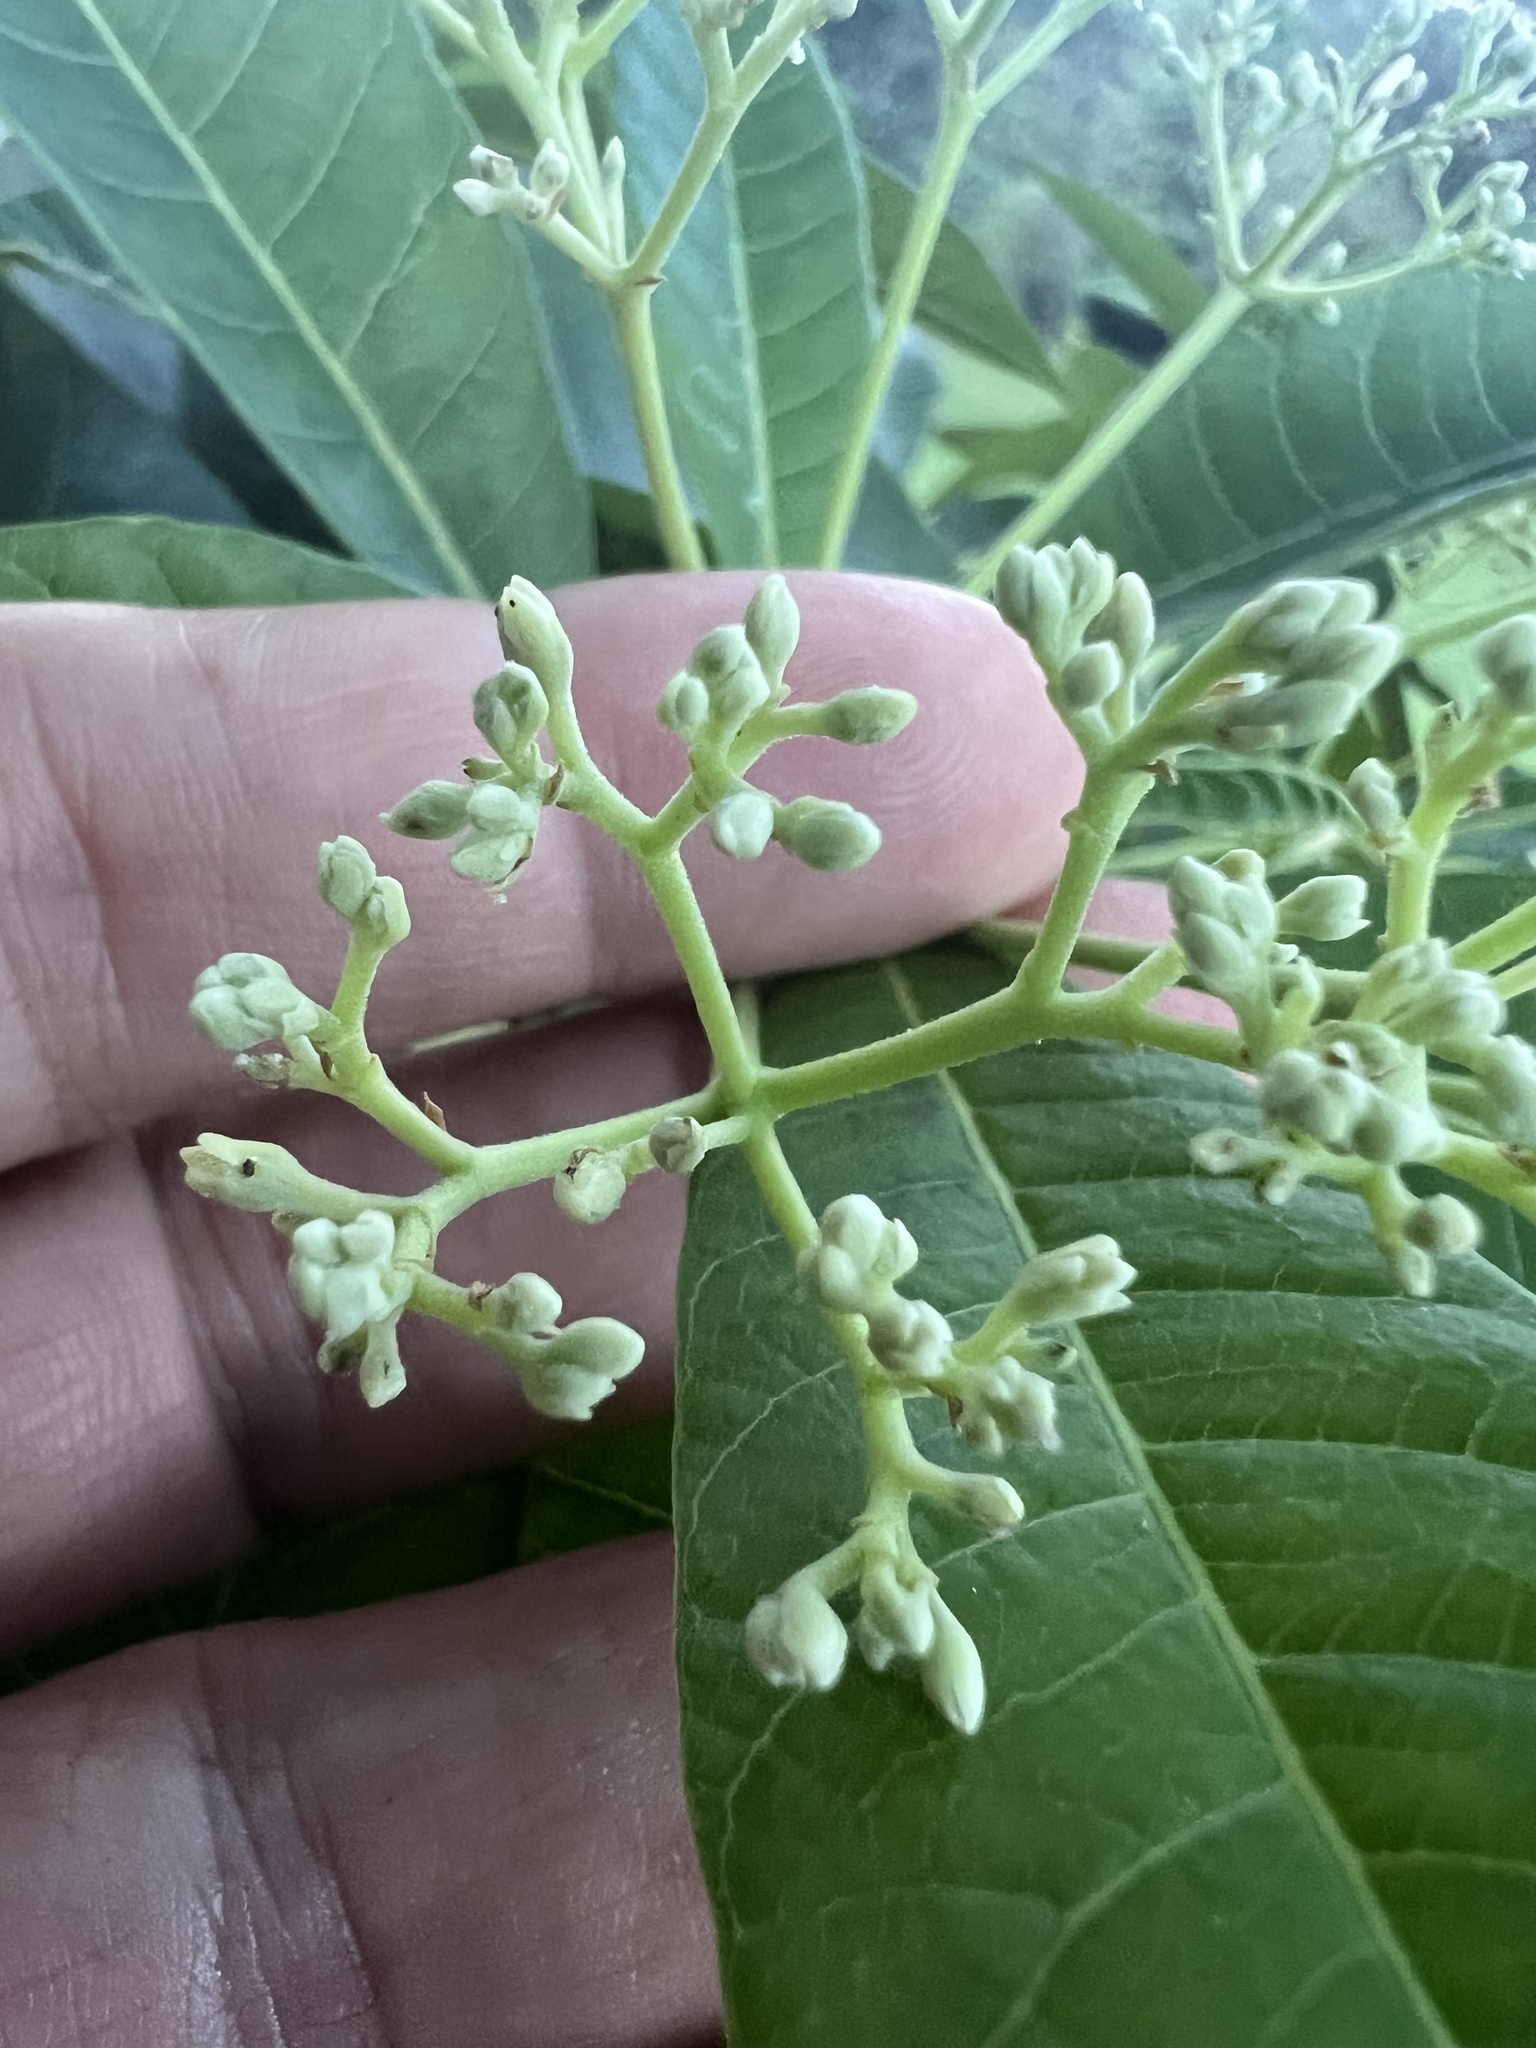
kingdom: Plantae
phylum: Tracheophyta
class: Magnoliopsida
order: Gentianales
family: Apocynaceae
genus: Alstonia
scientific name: Alstonia muelleriana
